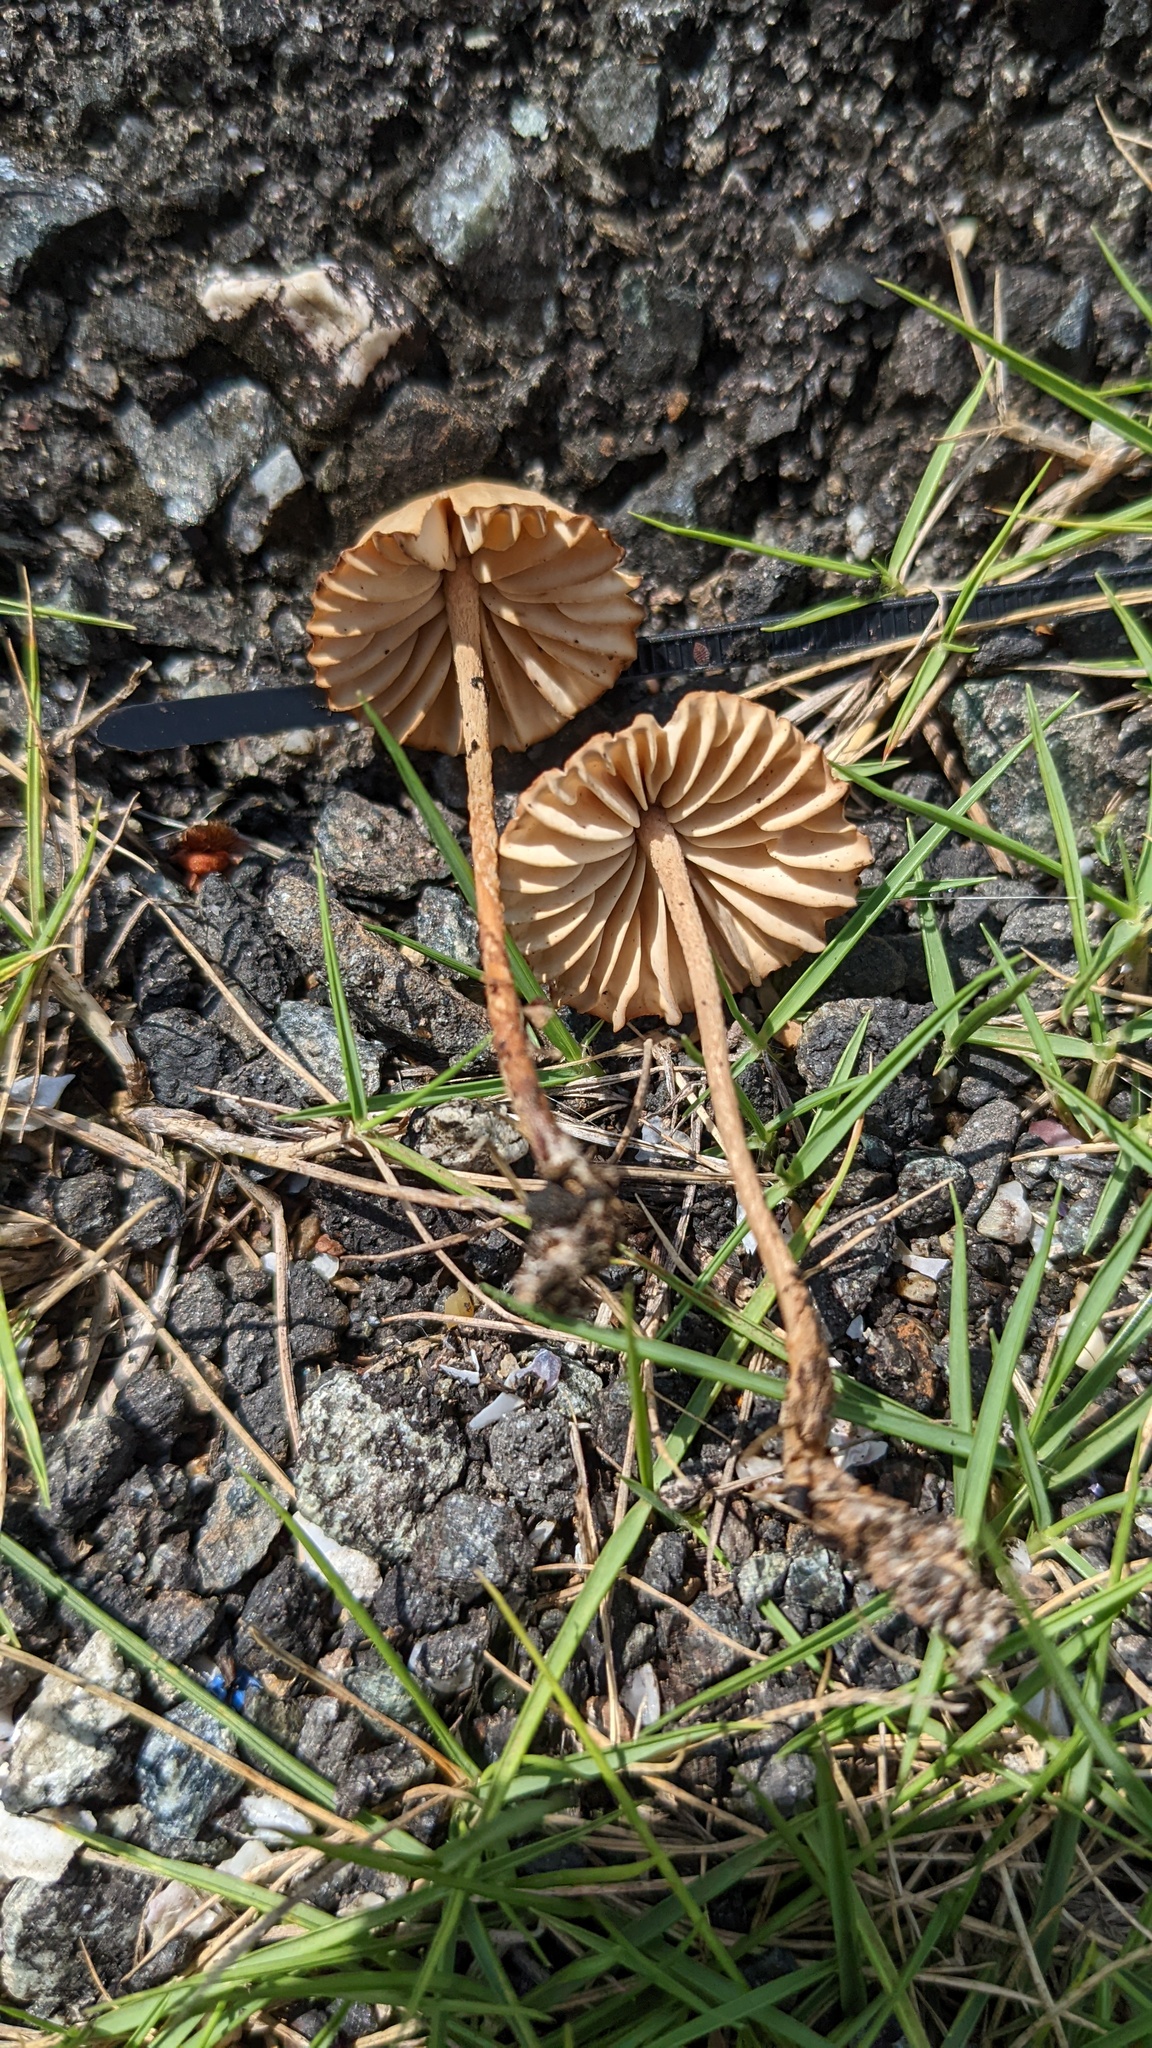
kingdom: Fungi
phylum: Basidiomycota
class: Agaricomycetes
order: Agaricales
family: Marasmiaceae
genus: Marasmius
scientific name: Marasmius oreades
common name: Fairy ring champignon
